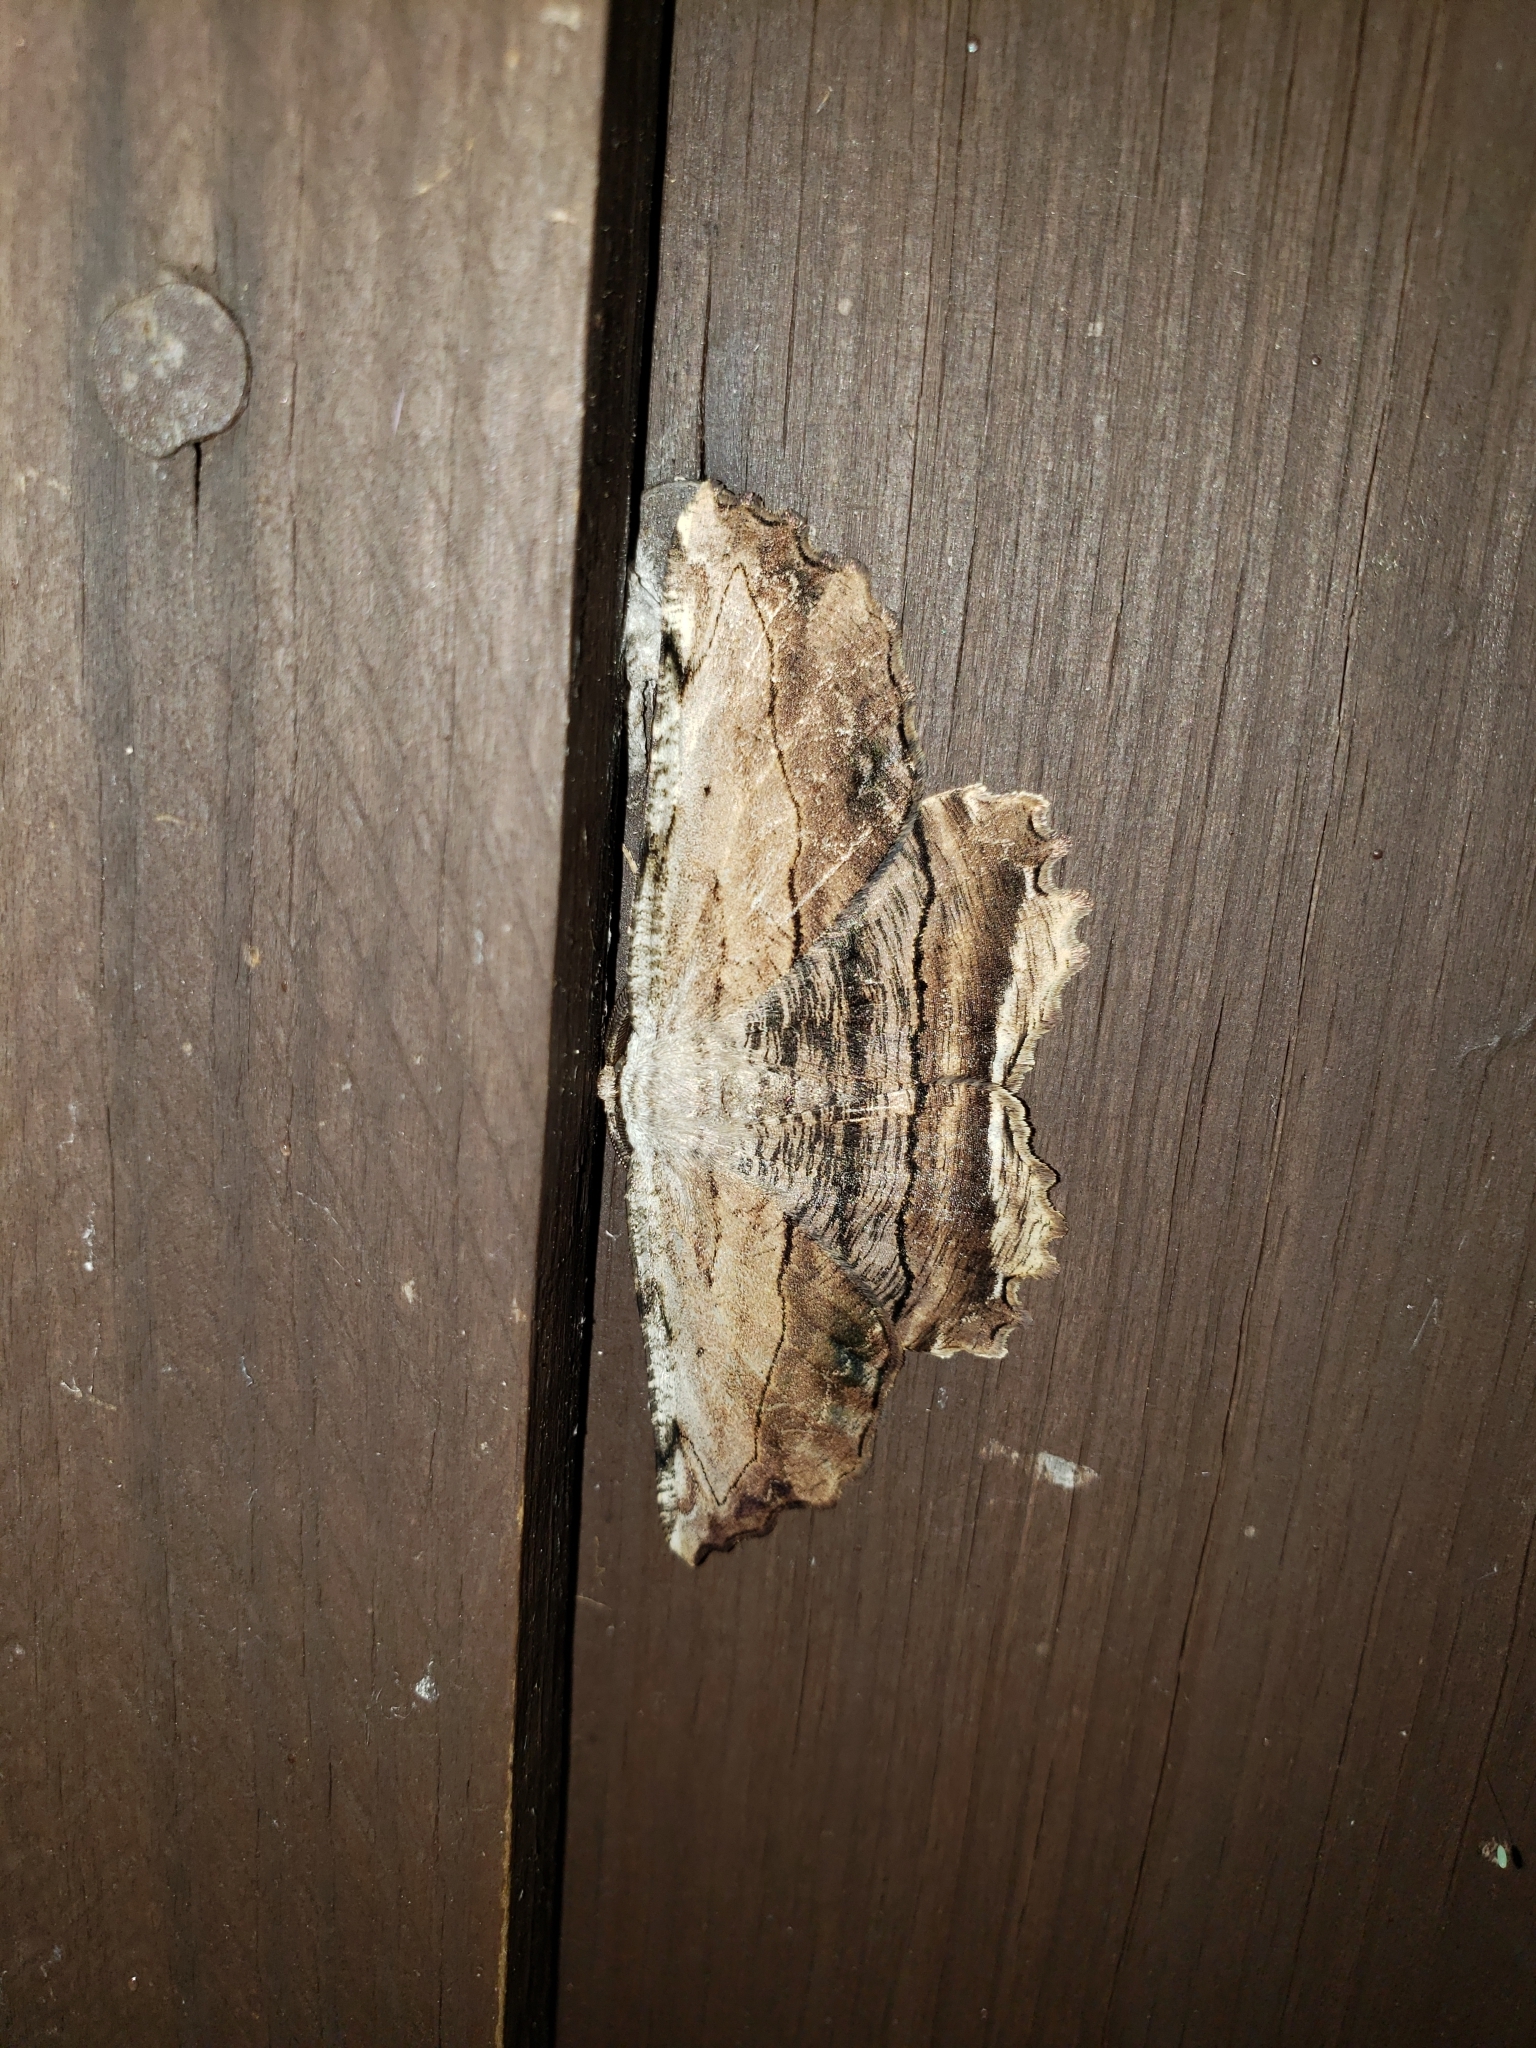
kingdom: Animalia
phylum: Arthropoda
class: Insecta
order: Lepidoptera
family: Geometridae
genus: Lytrosis
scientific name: Lytrosis unitaria
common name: Common lytrosis
